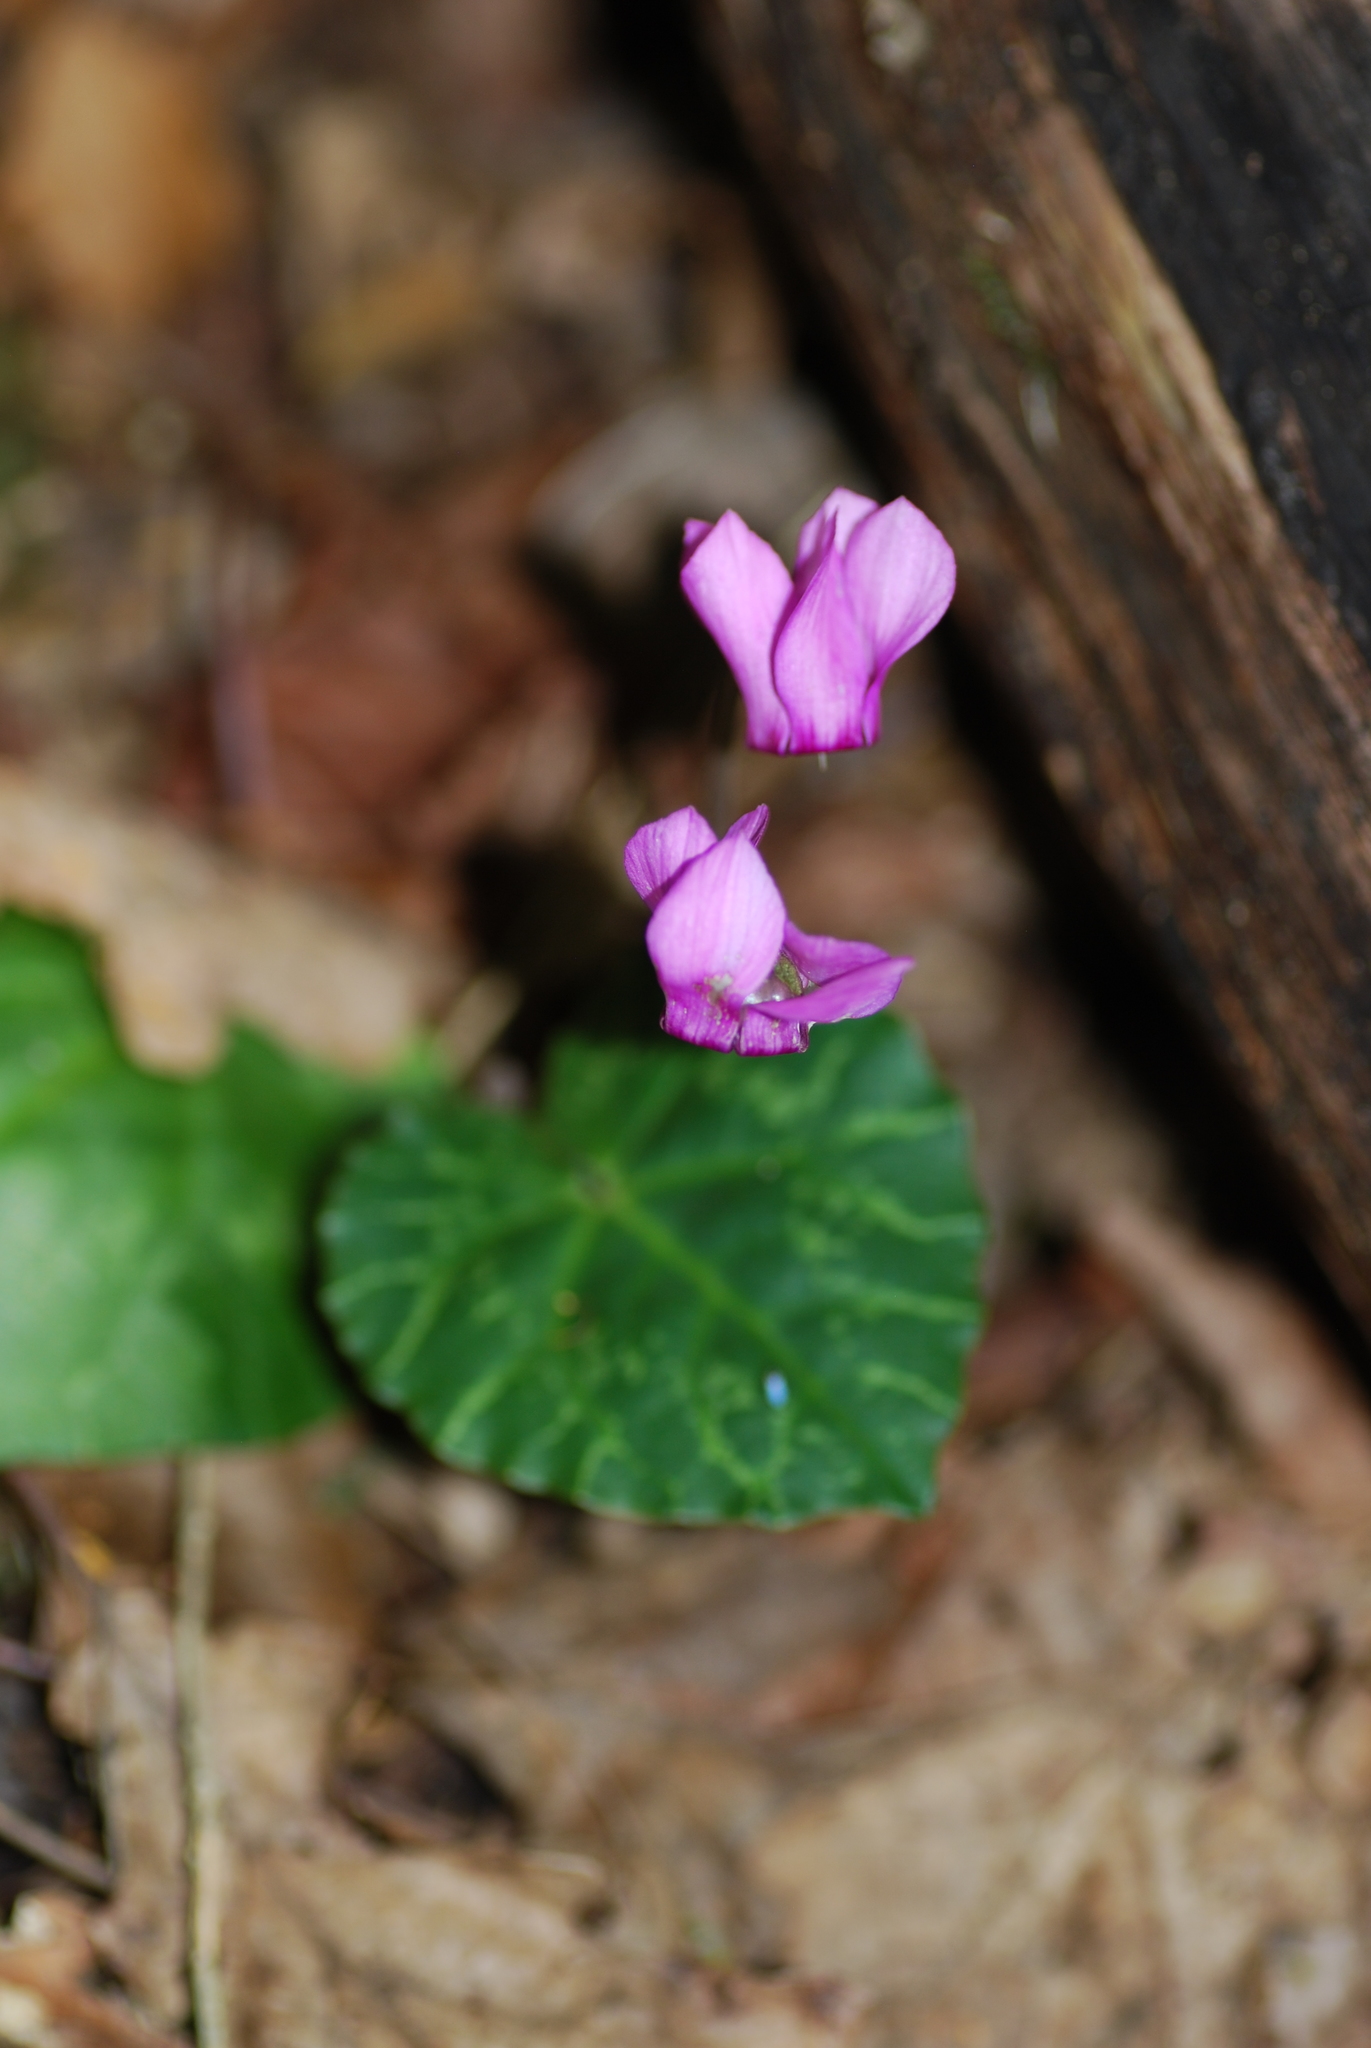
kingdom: Plantae
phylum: Tracheophyta
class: Magnoliopsida
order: Ericales
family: Primulaceae
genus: Cyclamen
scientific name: Cyclamen purpurascens
